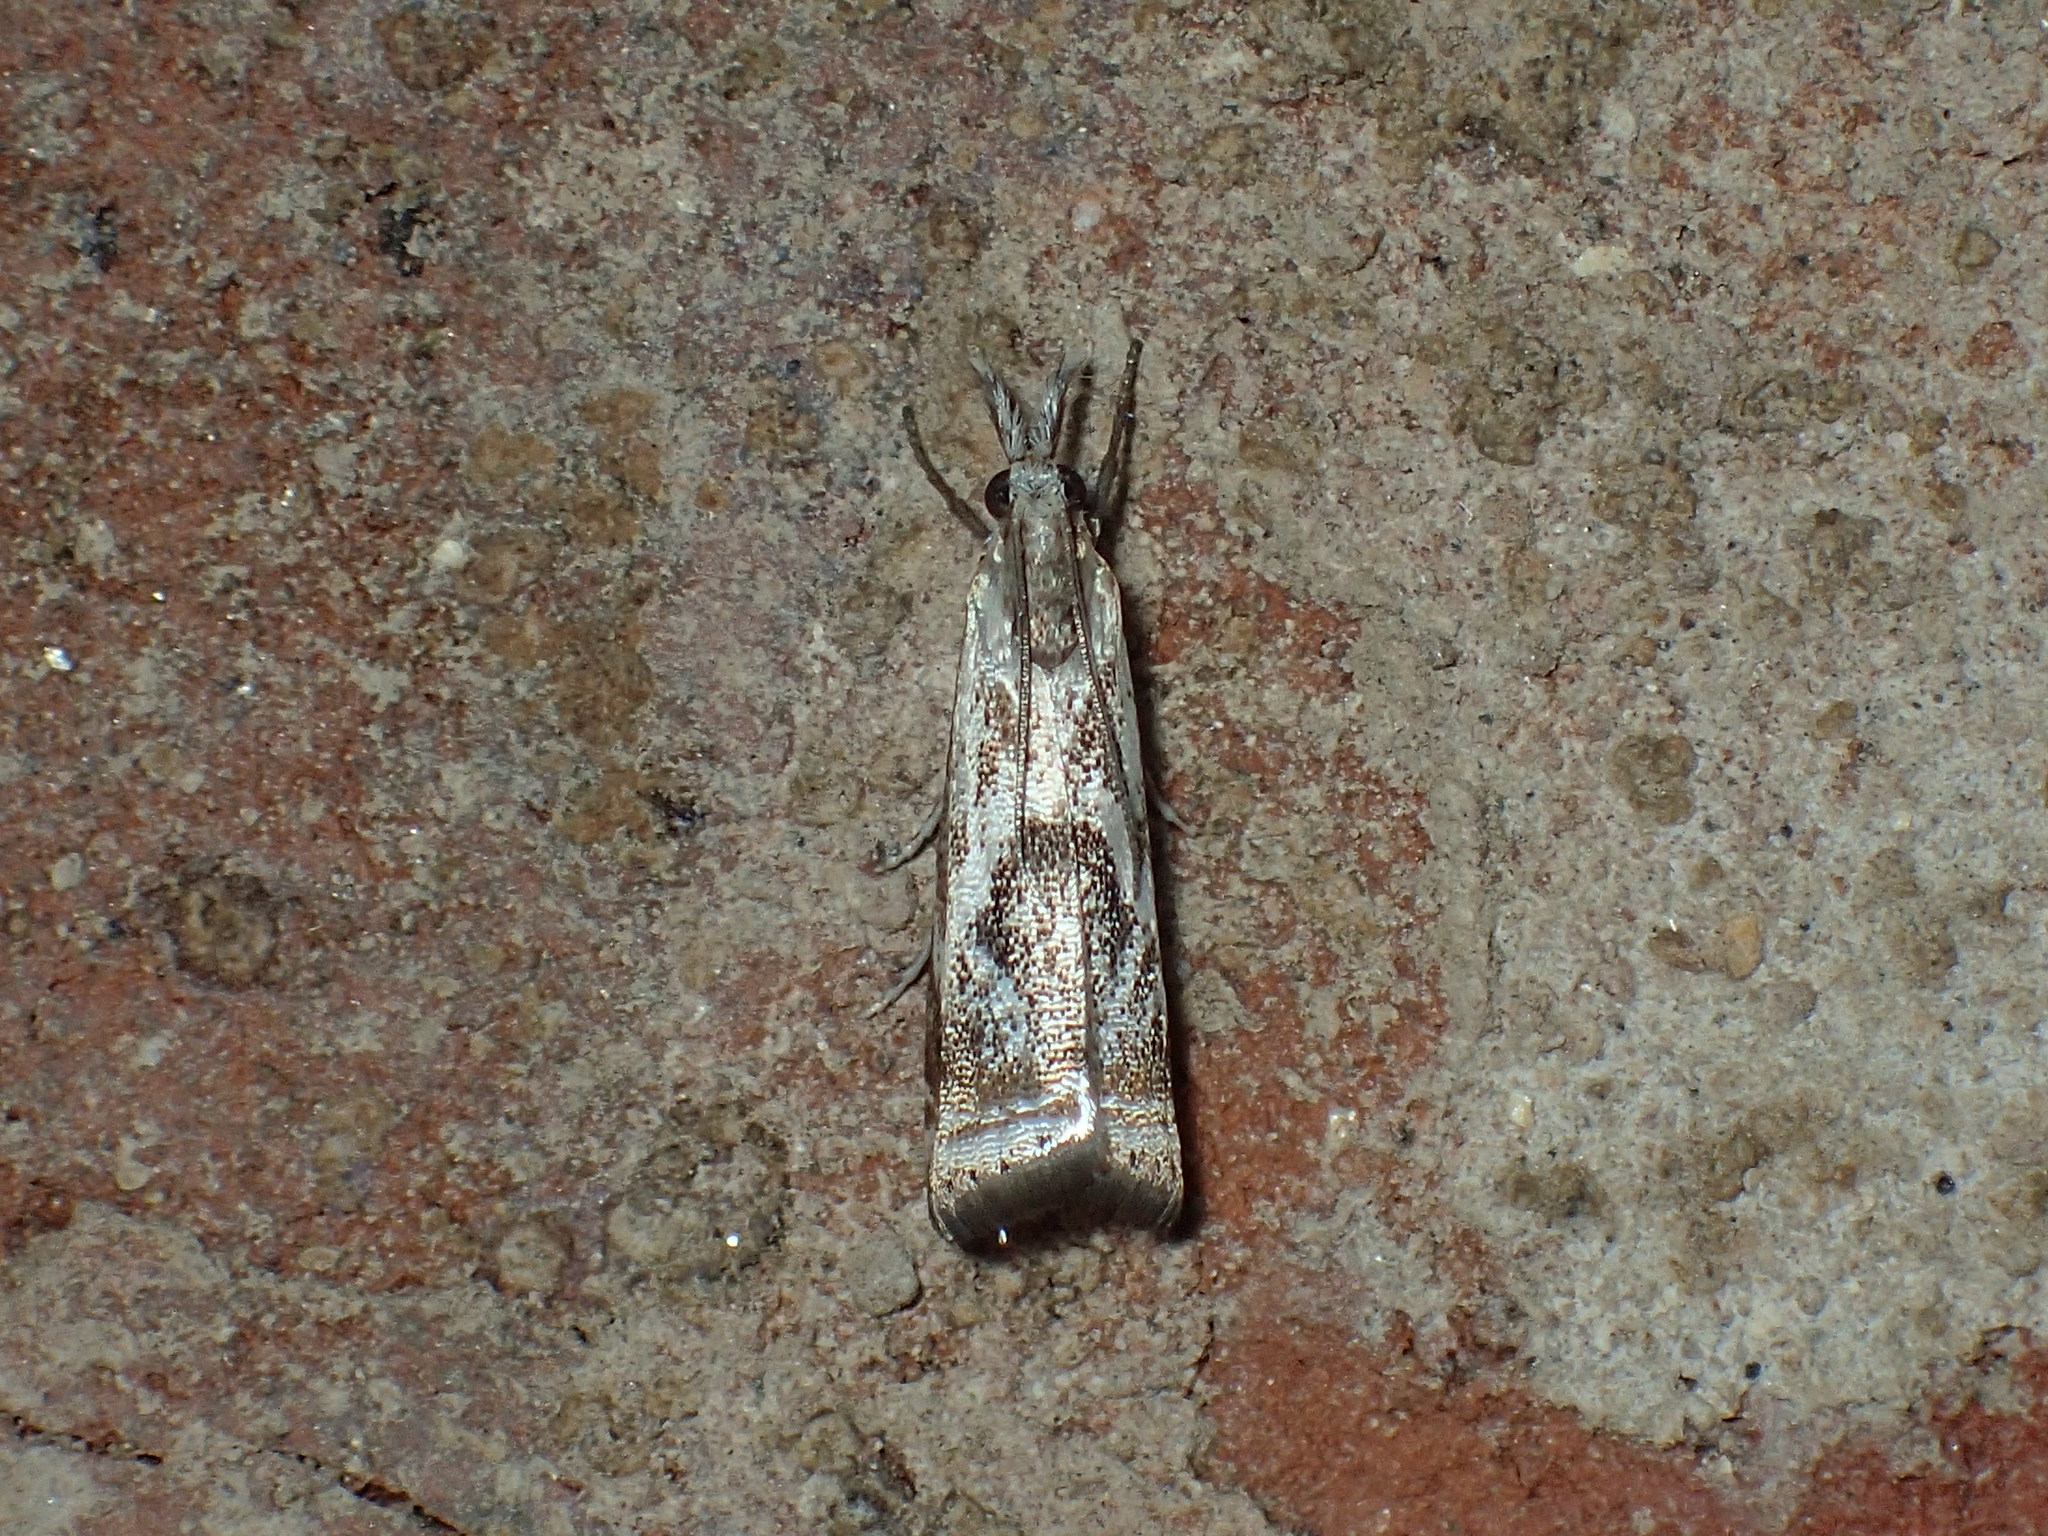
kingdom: Animalia
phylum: Arthropoda
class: Insecta
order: Lepidoptera
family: Crambidae
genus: Microcrambus
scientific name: Microcrambus elegans
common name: Elegant grass-veneer
